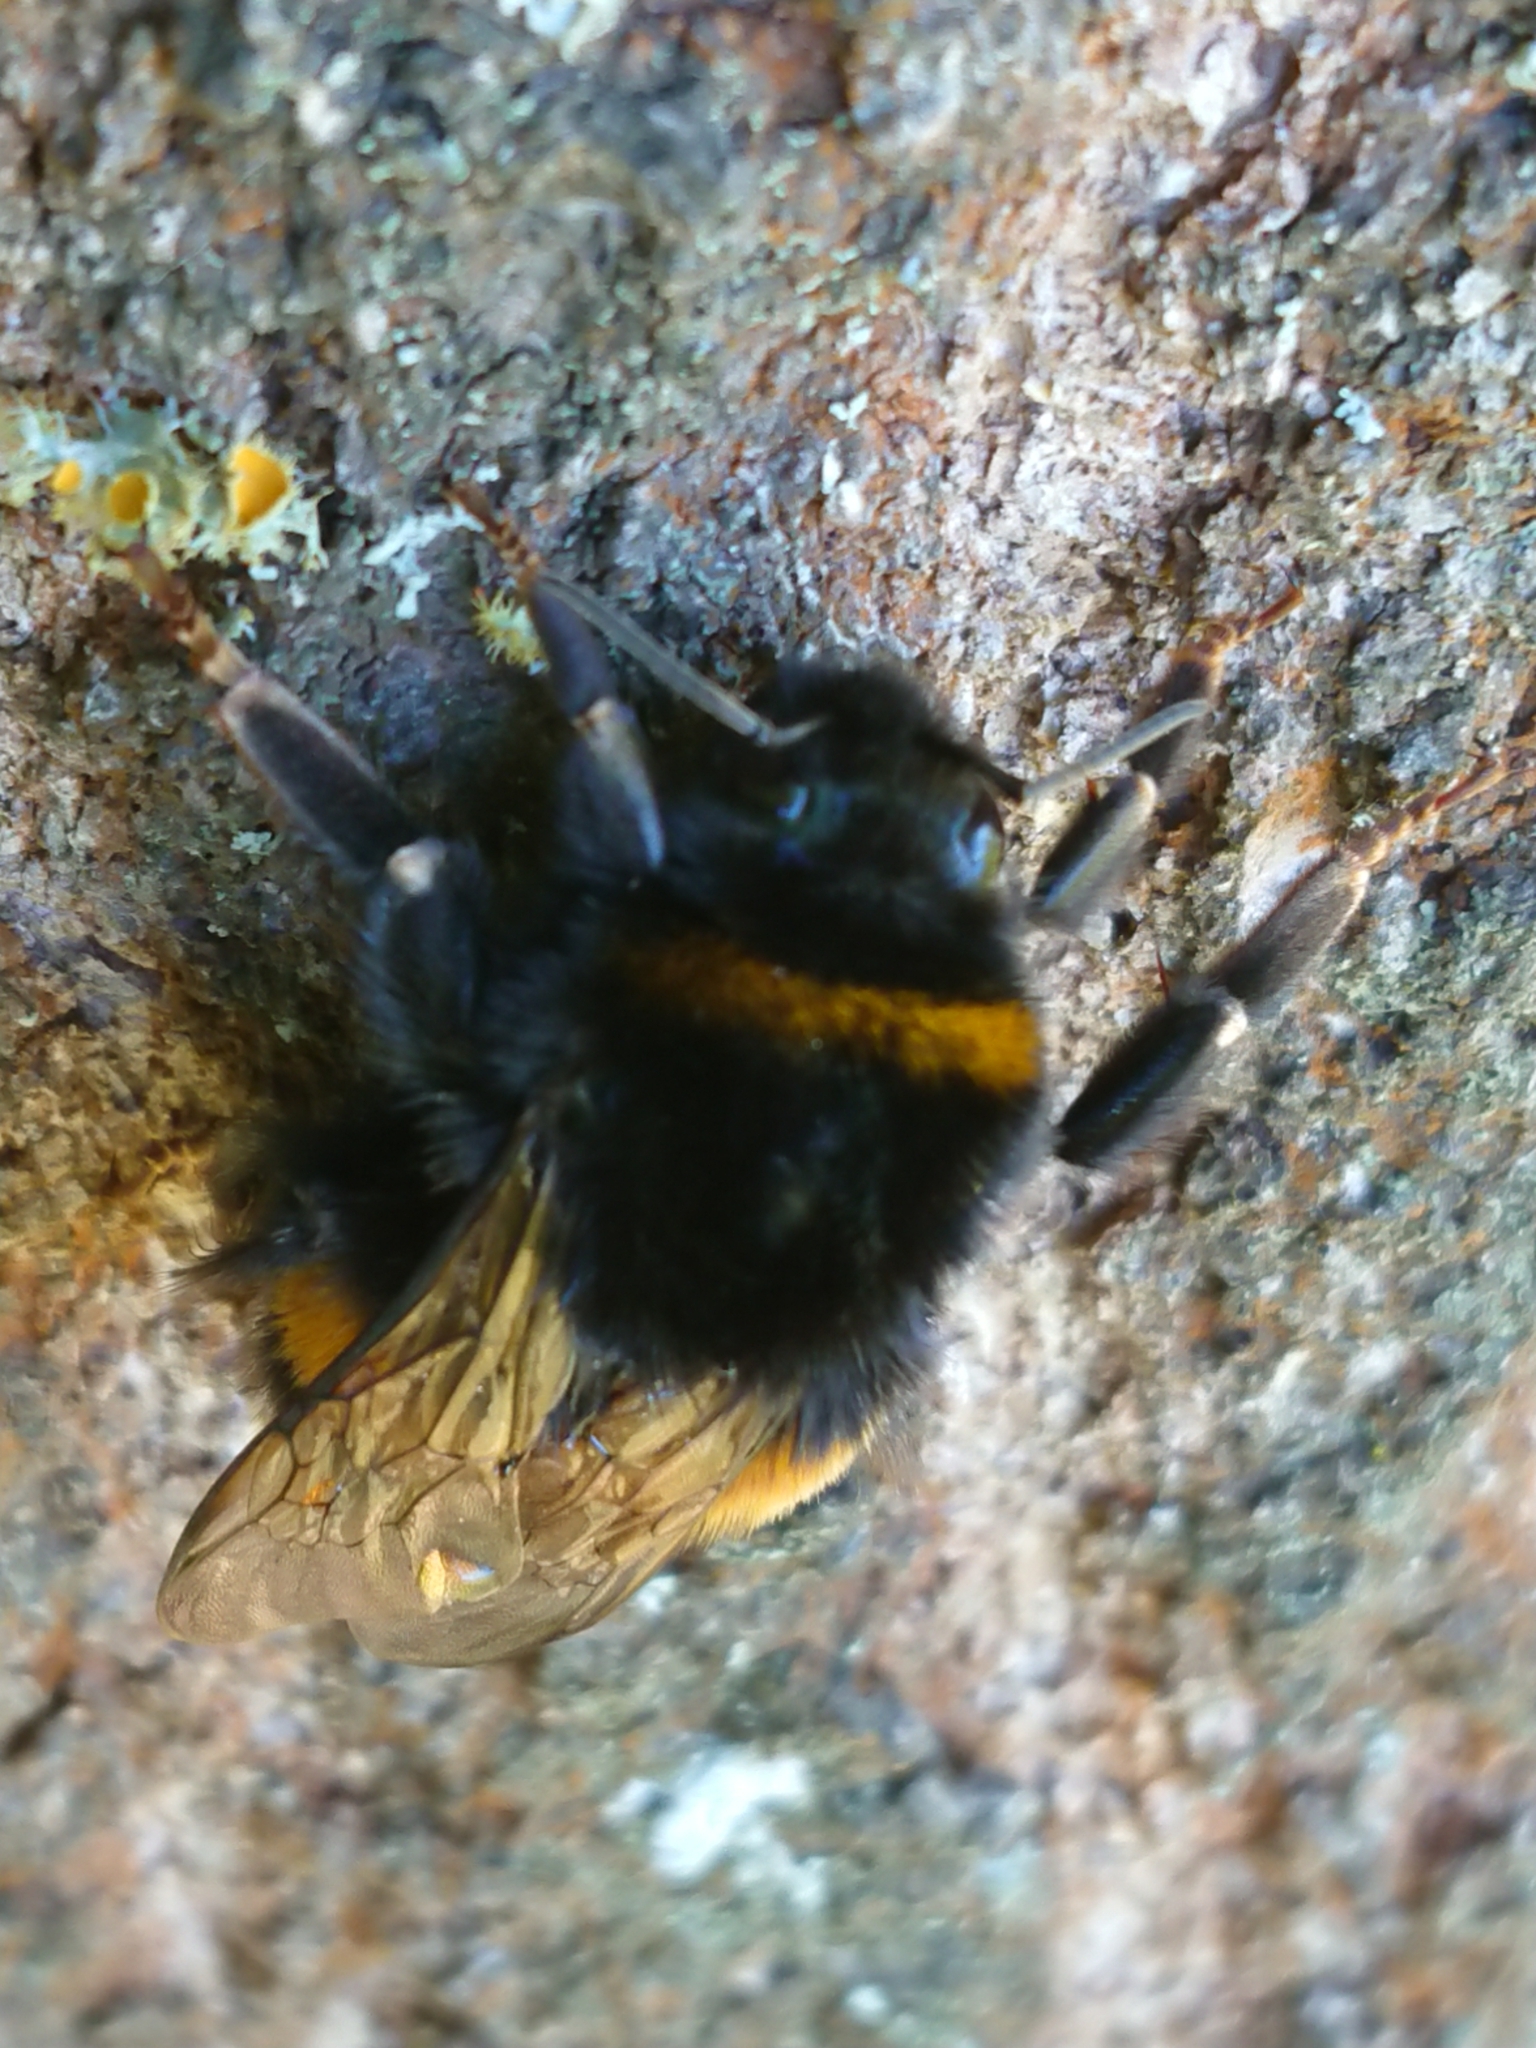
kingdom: Animalia
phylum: Arthropoda
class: Insecta
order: Hymenoptera
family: Apidae
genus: Bombus
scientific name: Bombus terrestris
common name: Buff-tailed bumblebee
